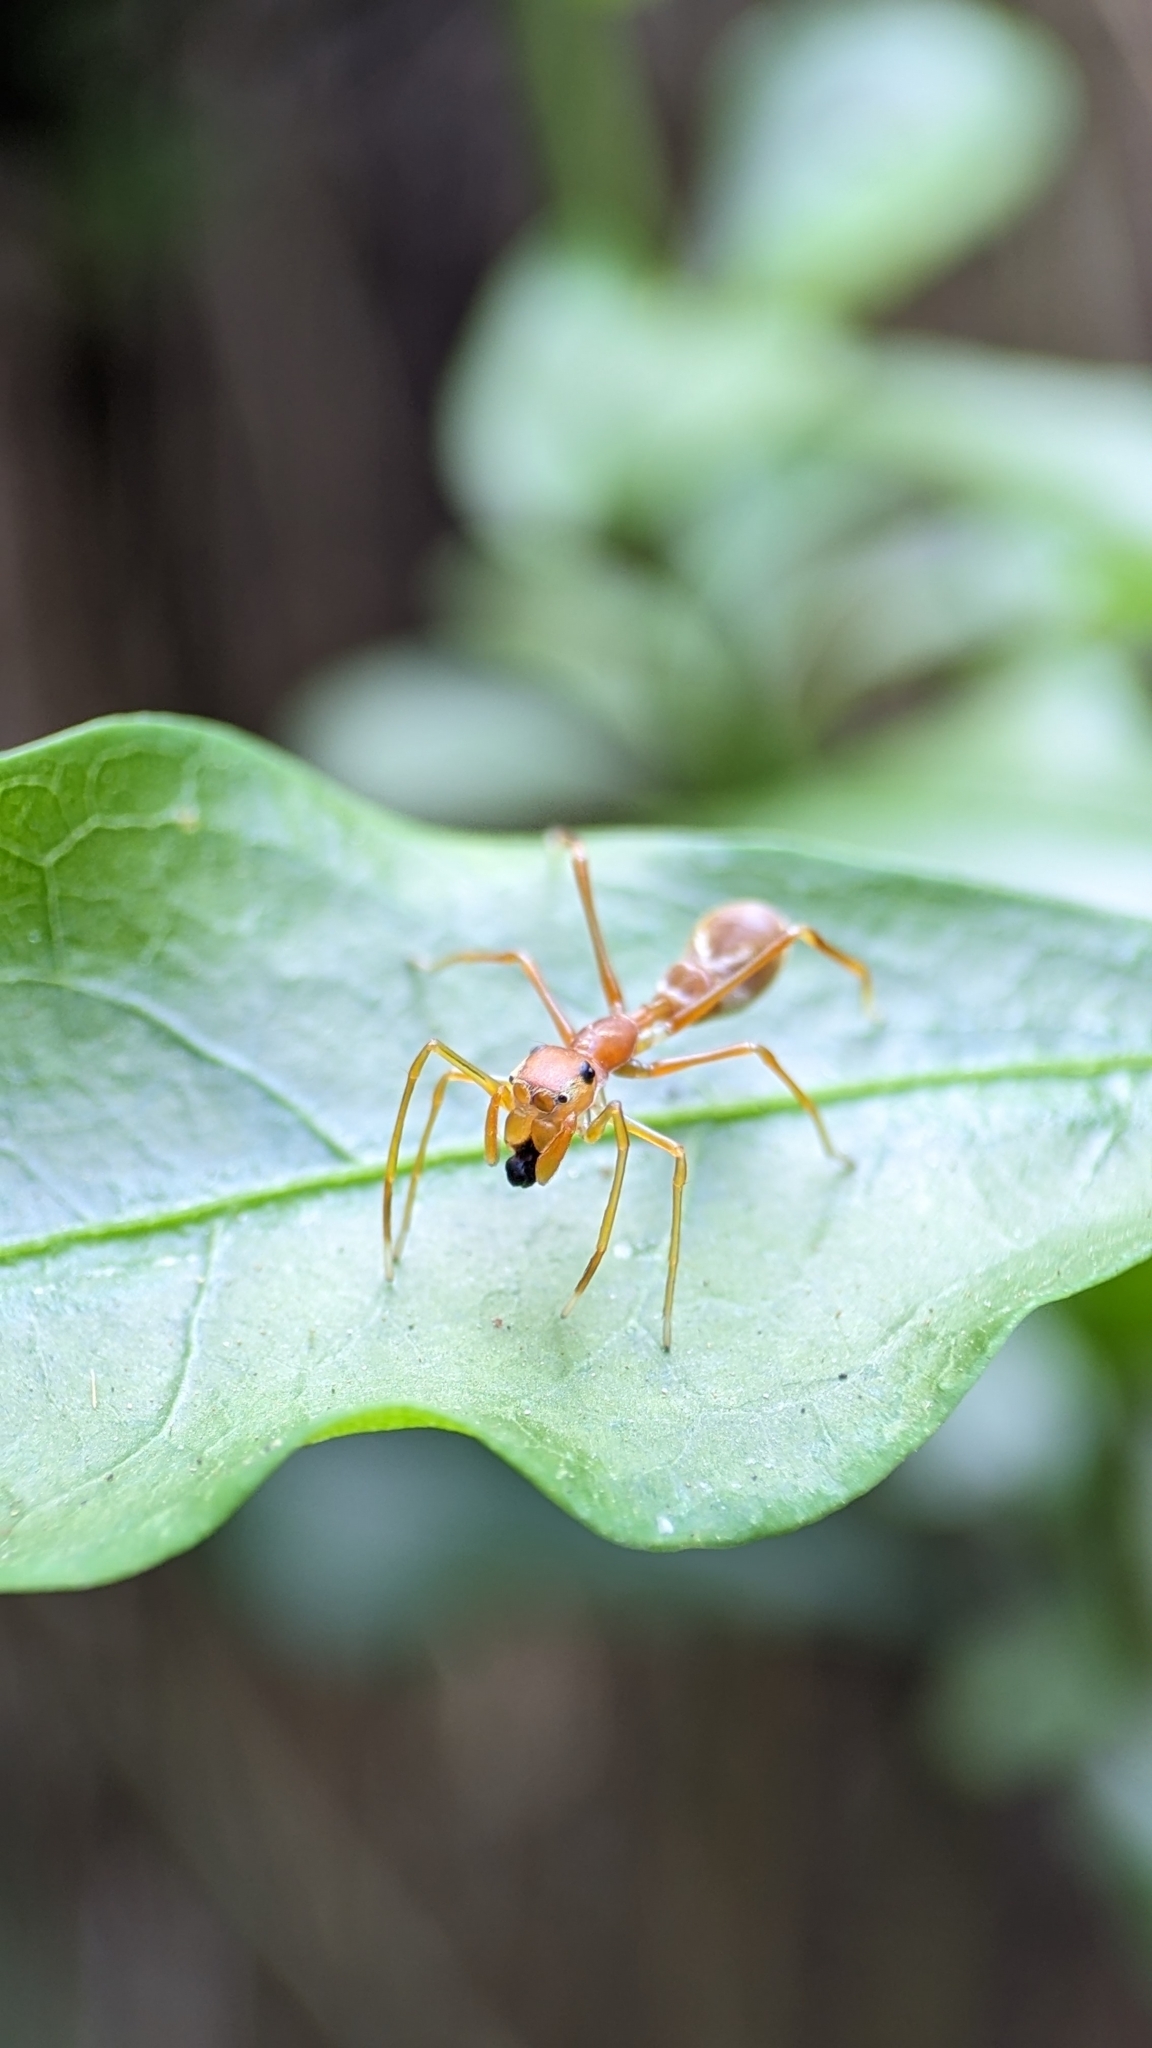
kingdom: Animalia
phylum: Arthropoda
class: Arachnida
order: Araneae
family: Salticidae
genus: Myrmaplata
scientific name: Myrmaplata plataleoides
